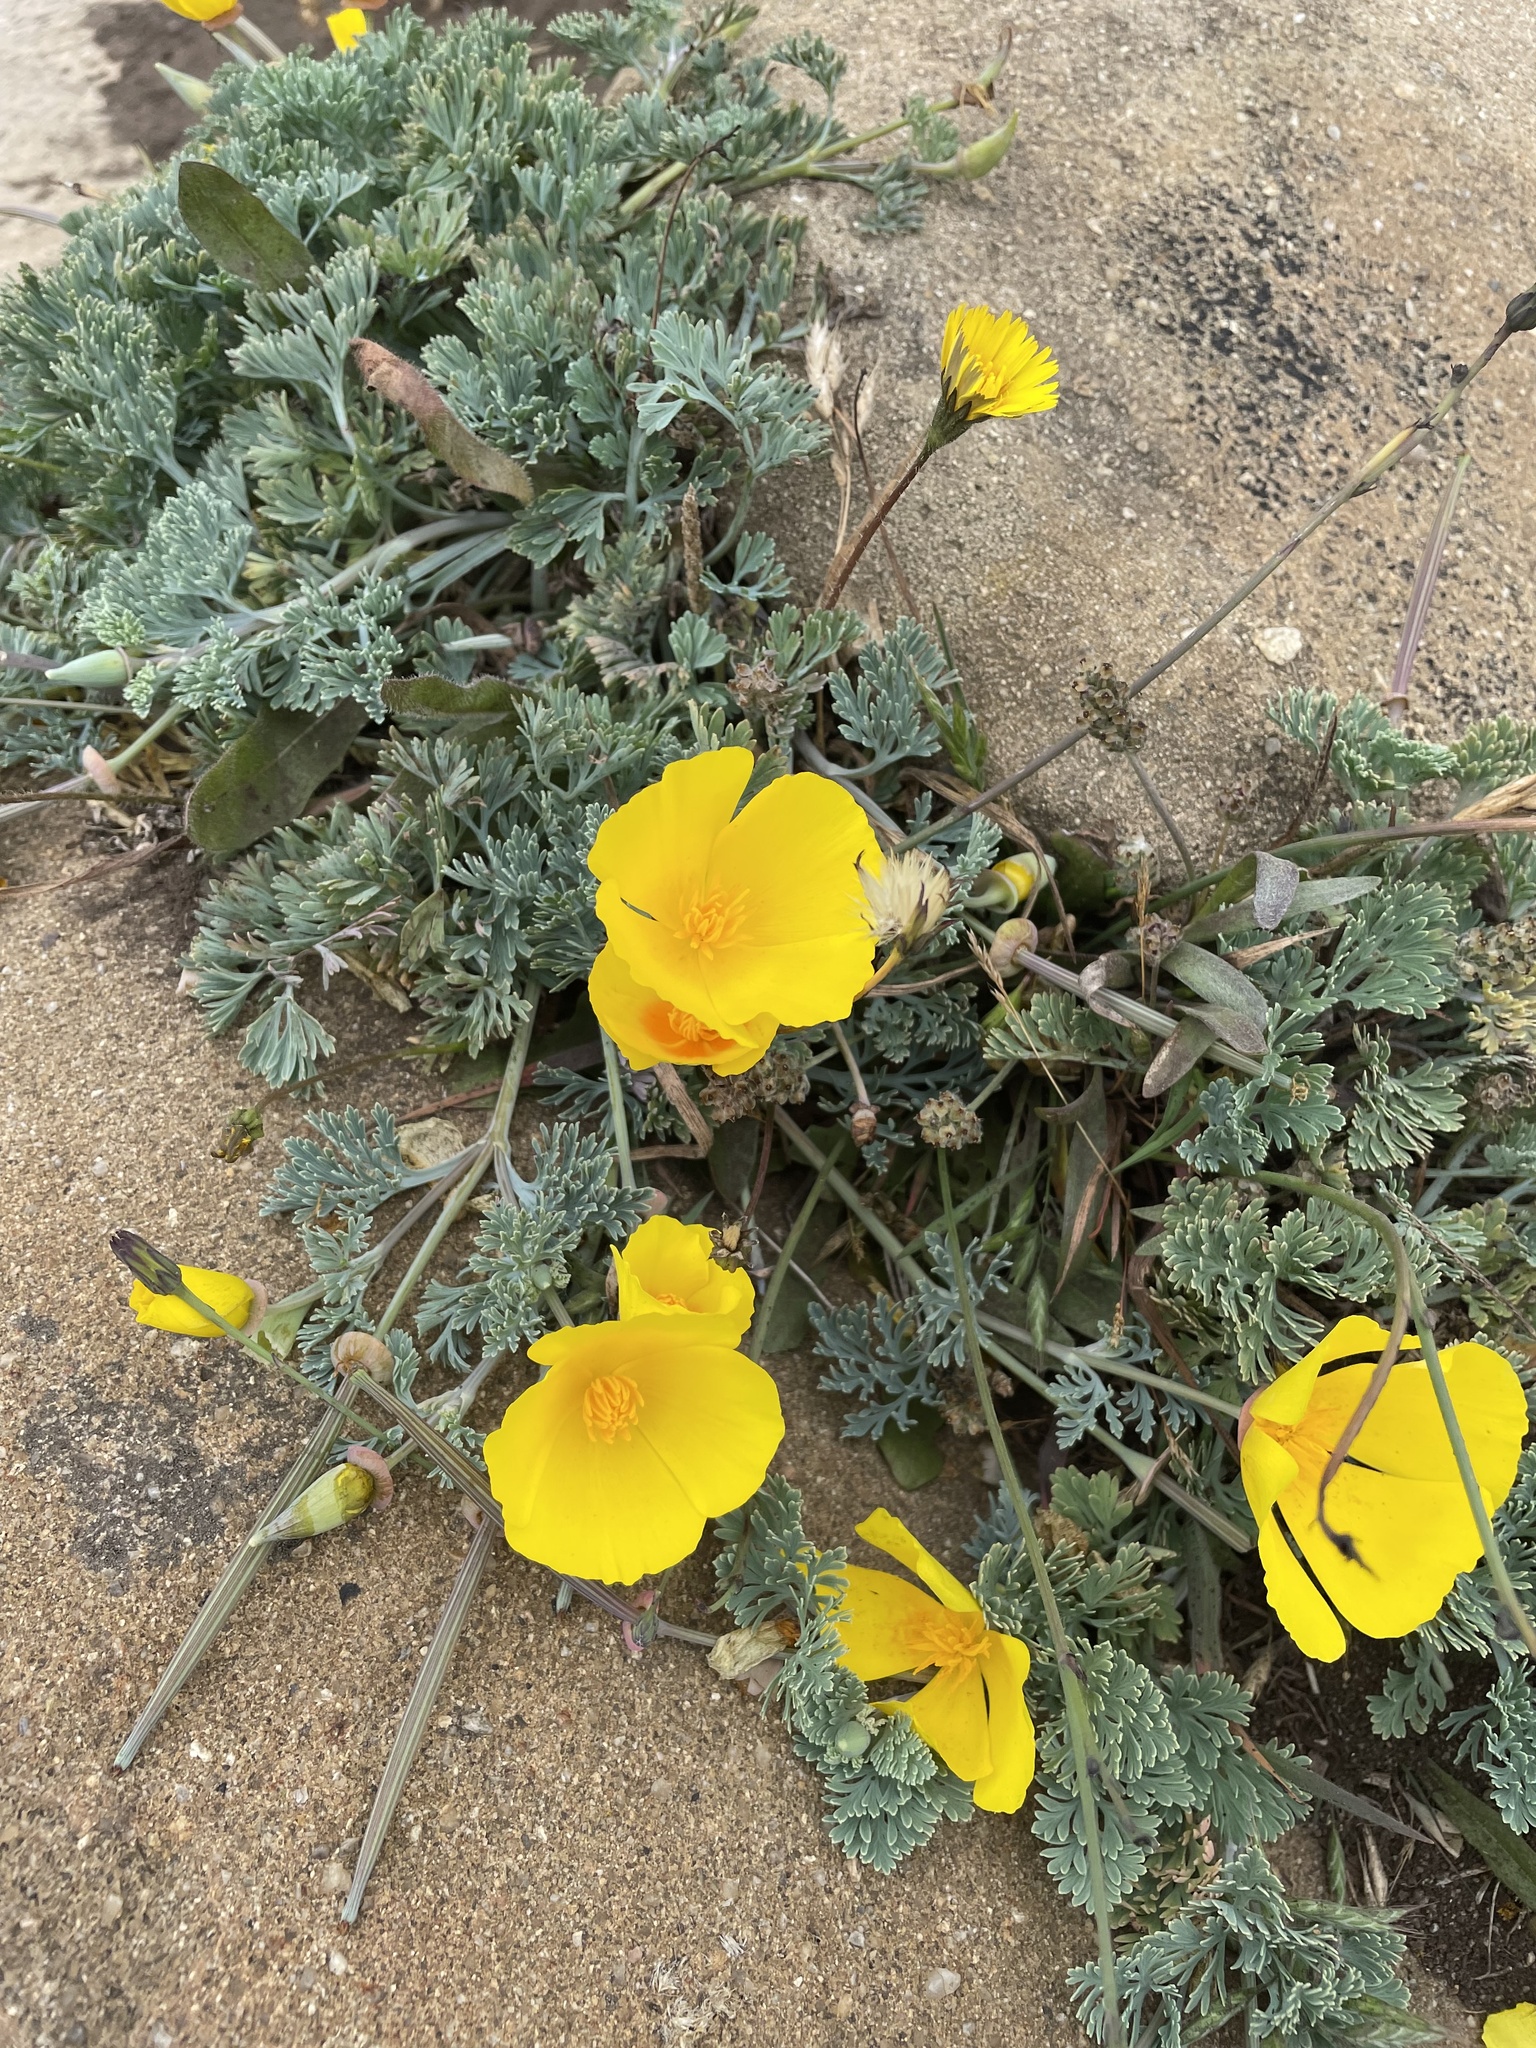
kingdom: Plantae
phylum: Tracheophyta
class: Magnoliopsida
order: Ranunculales
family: Papaveraceae
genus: Eschscholzia
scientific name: Eschscholzia californica
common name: California poppy
